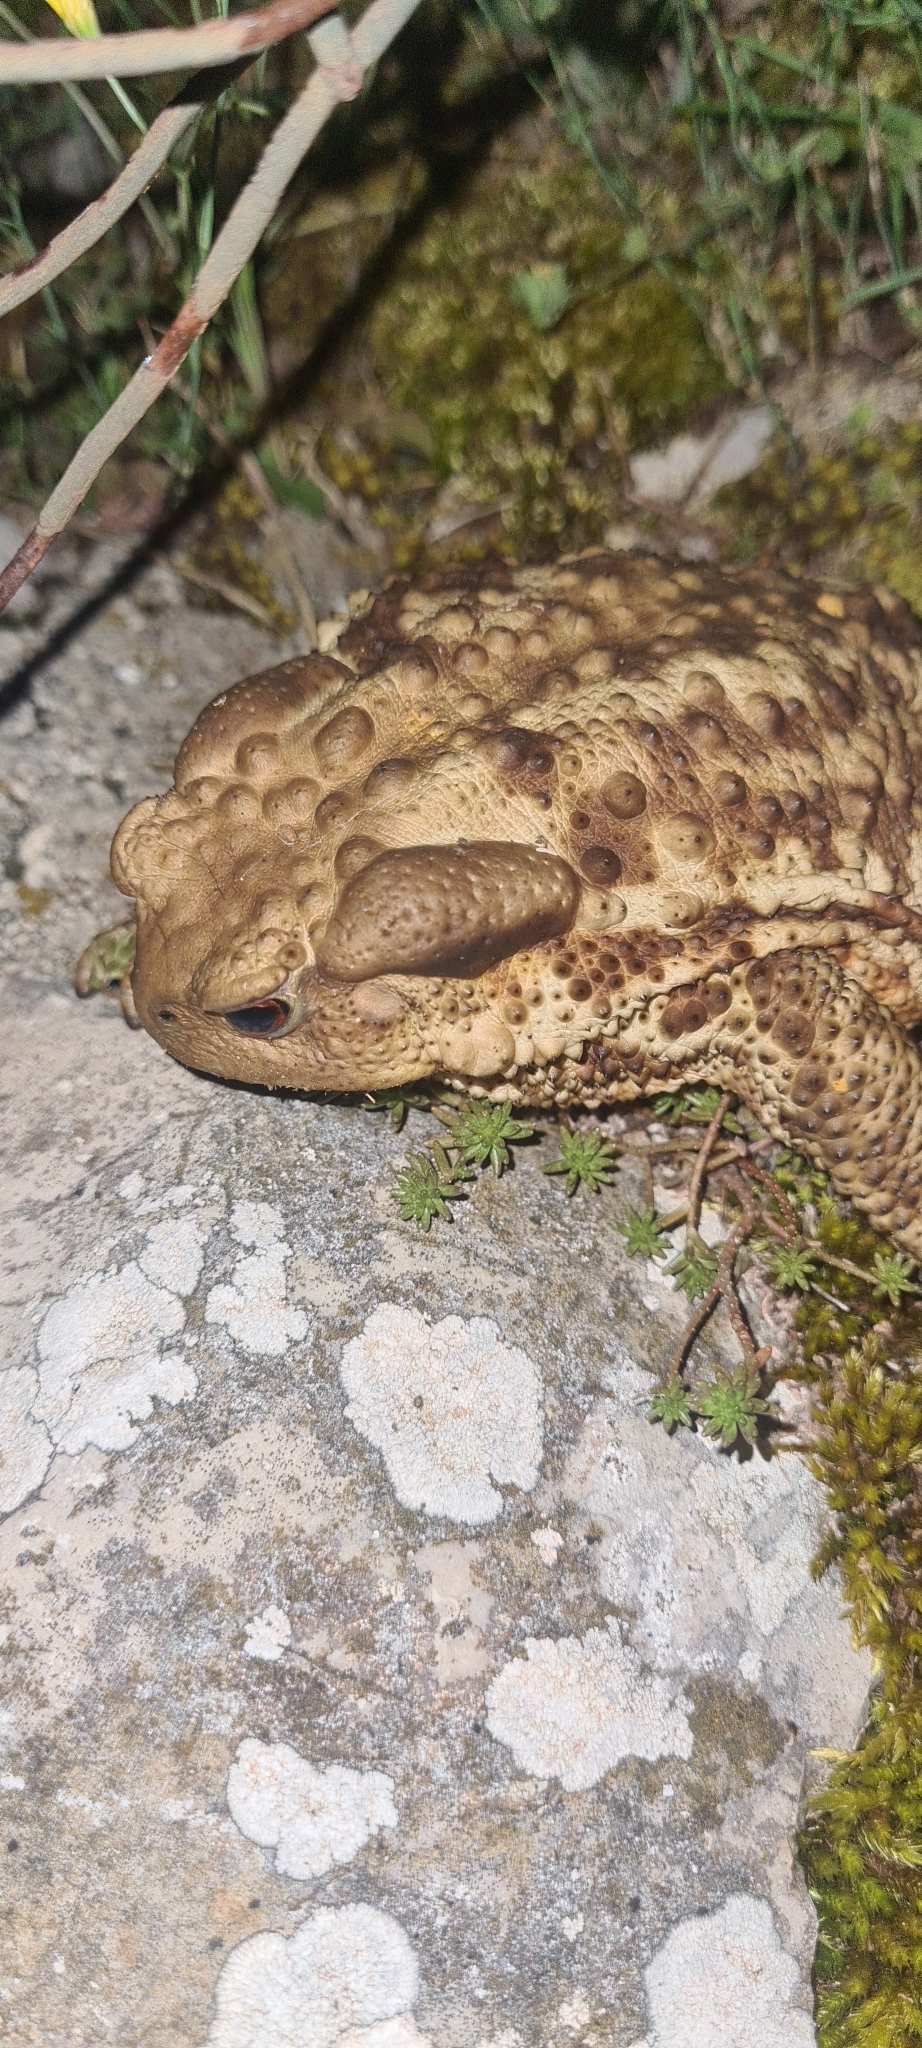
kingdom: Animalia
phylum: Chordata
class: Amphibia
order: Anura
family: Bufonidae
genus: Bufo
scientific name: Bufo bufo
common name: Common toad
